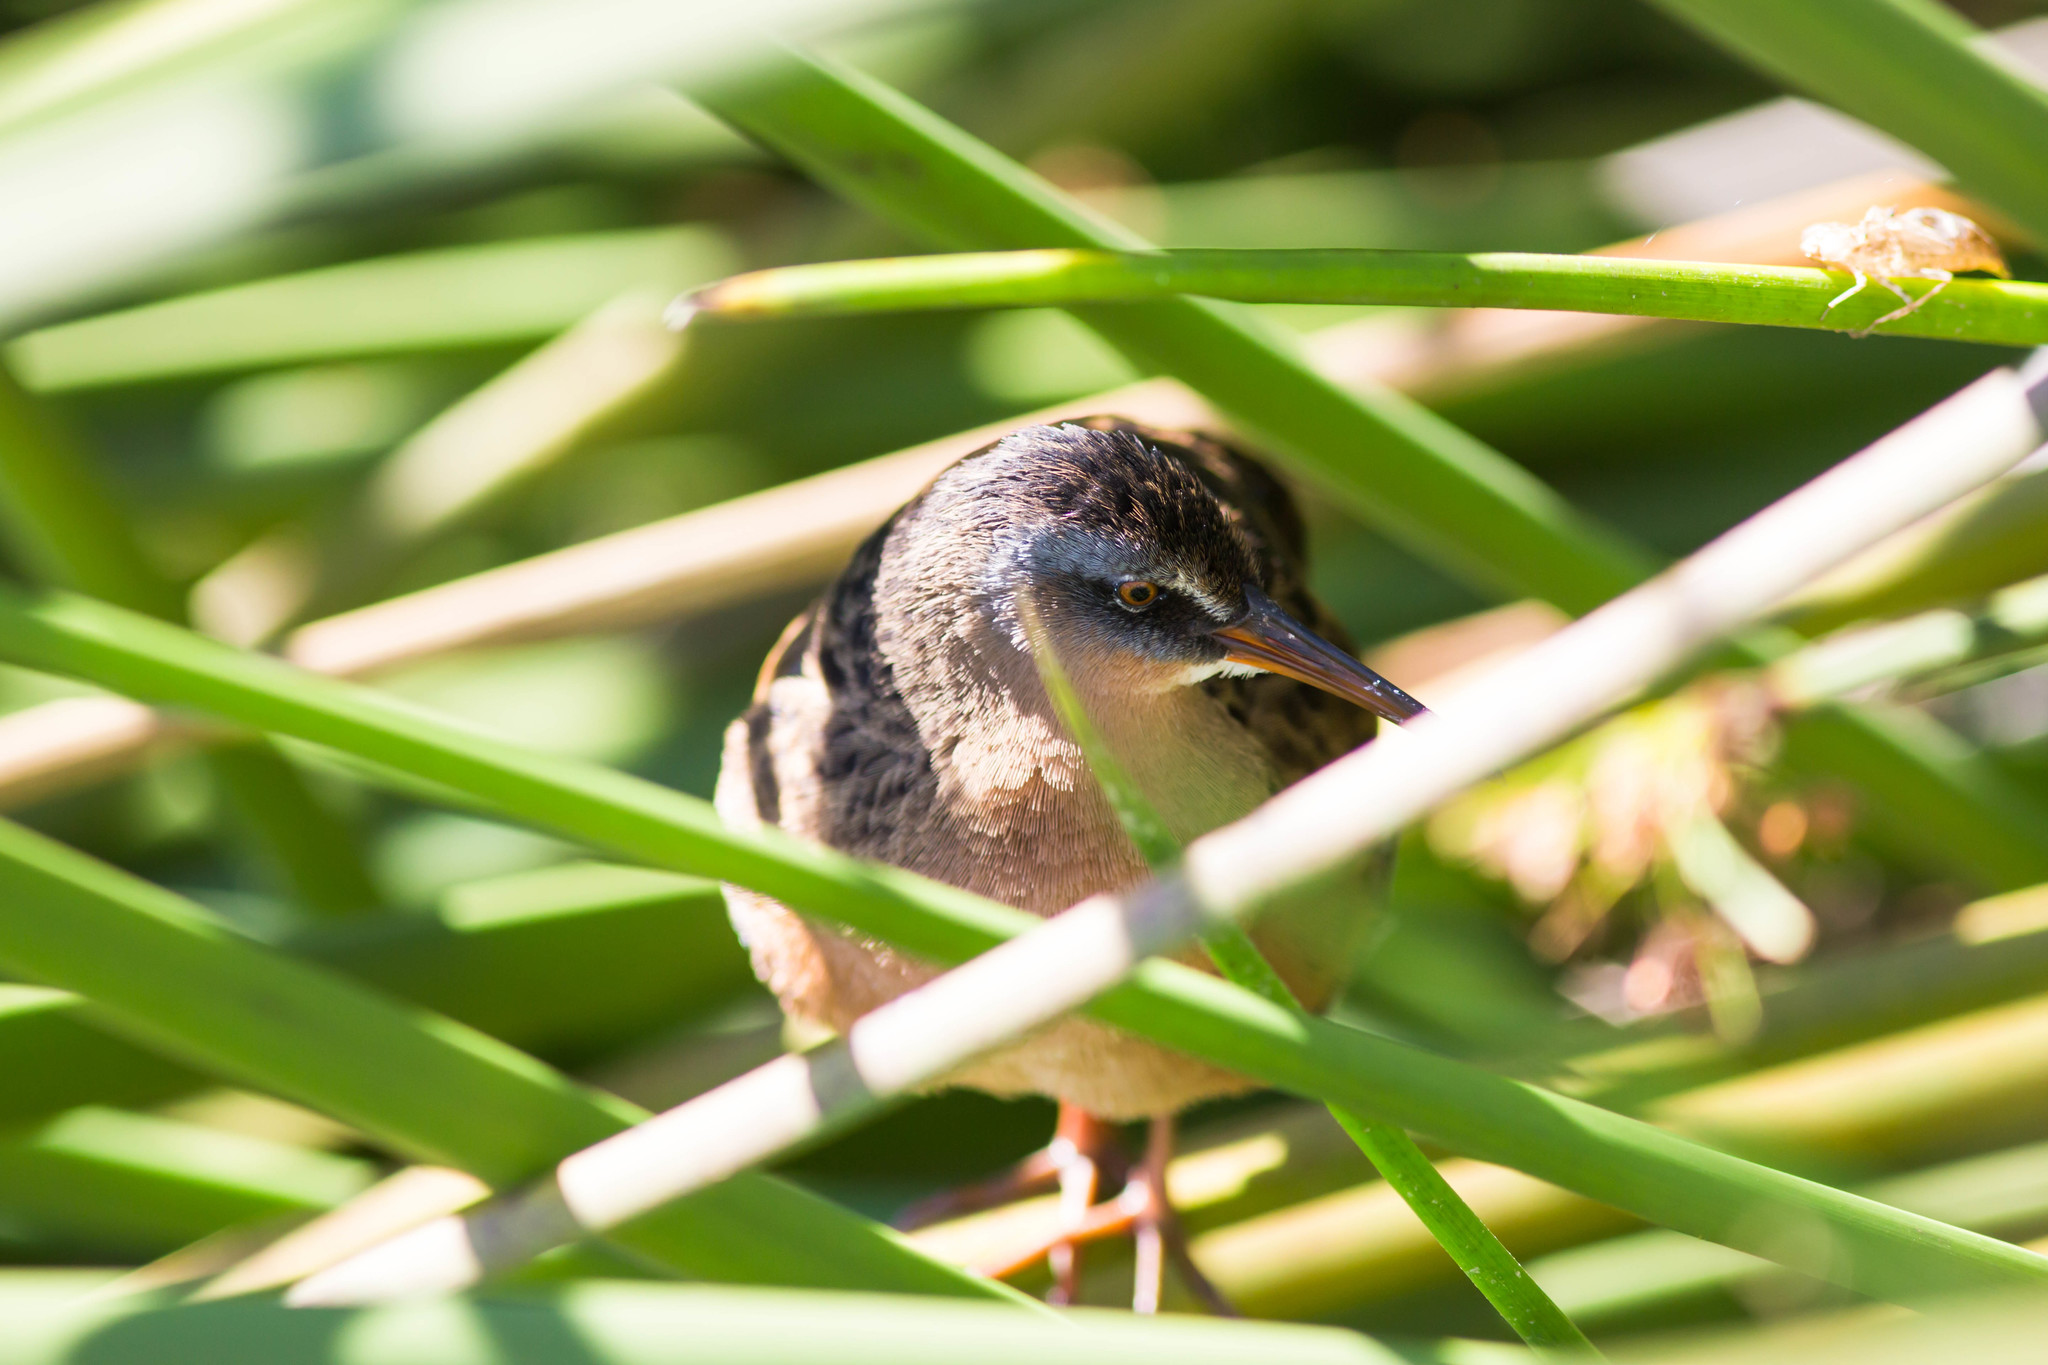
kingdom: Animalia
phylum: Chordata
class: Aves
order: Gruiformes
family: Rallidae
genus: Rallus
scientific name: Rallus limicola
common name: Virginia rail
